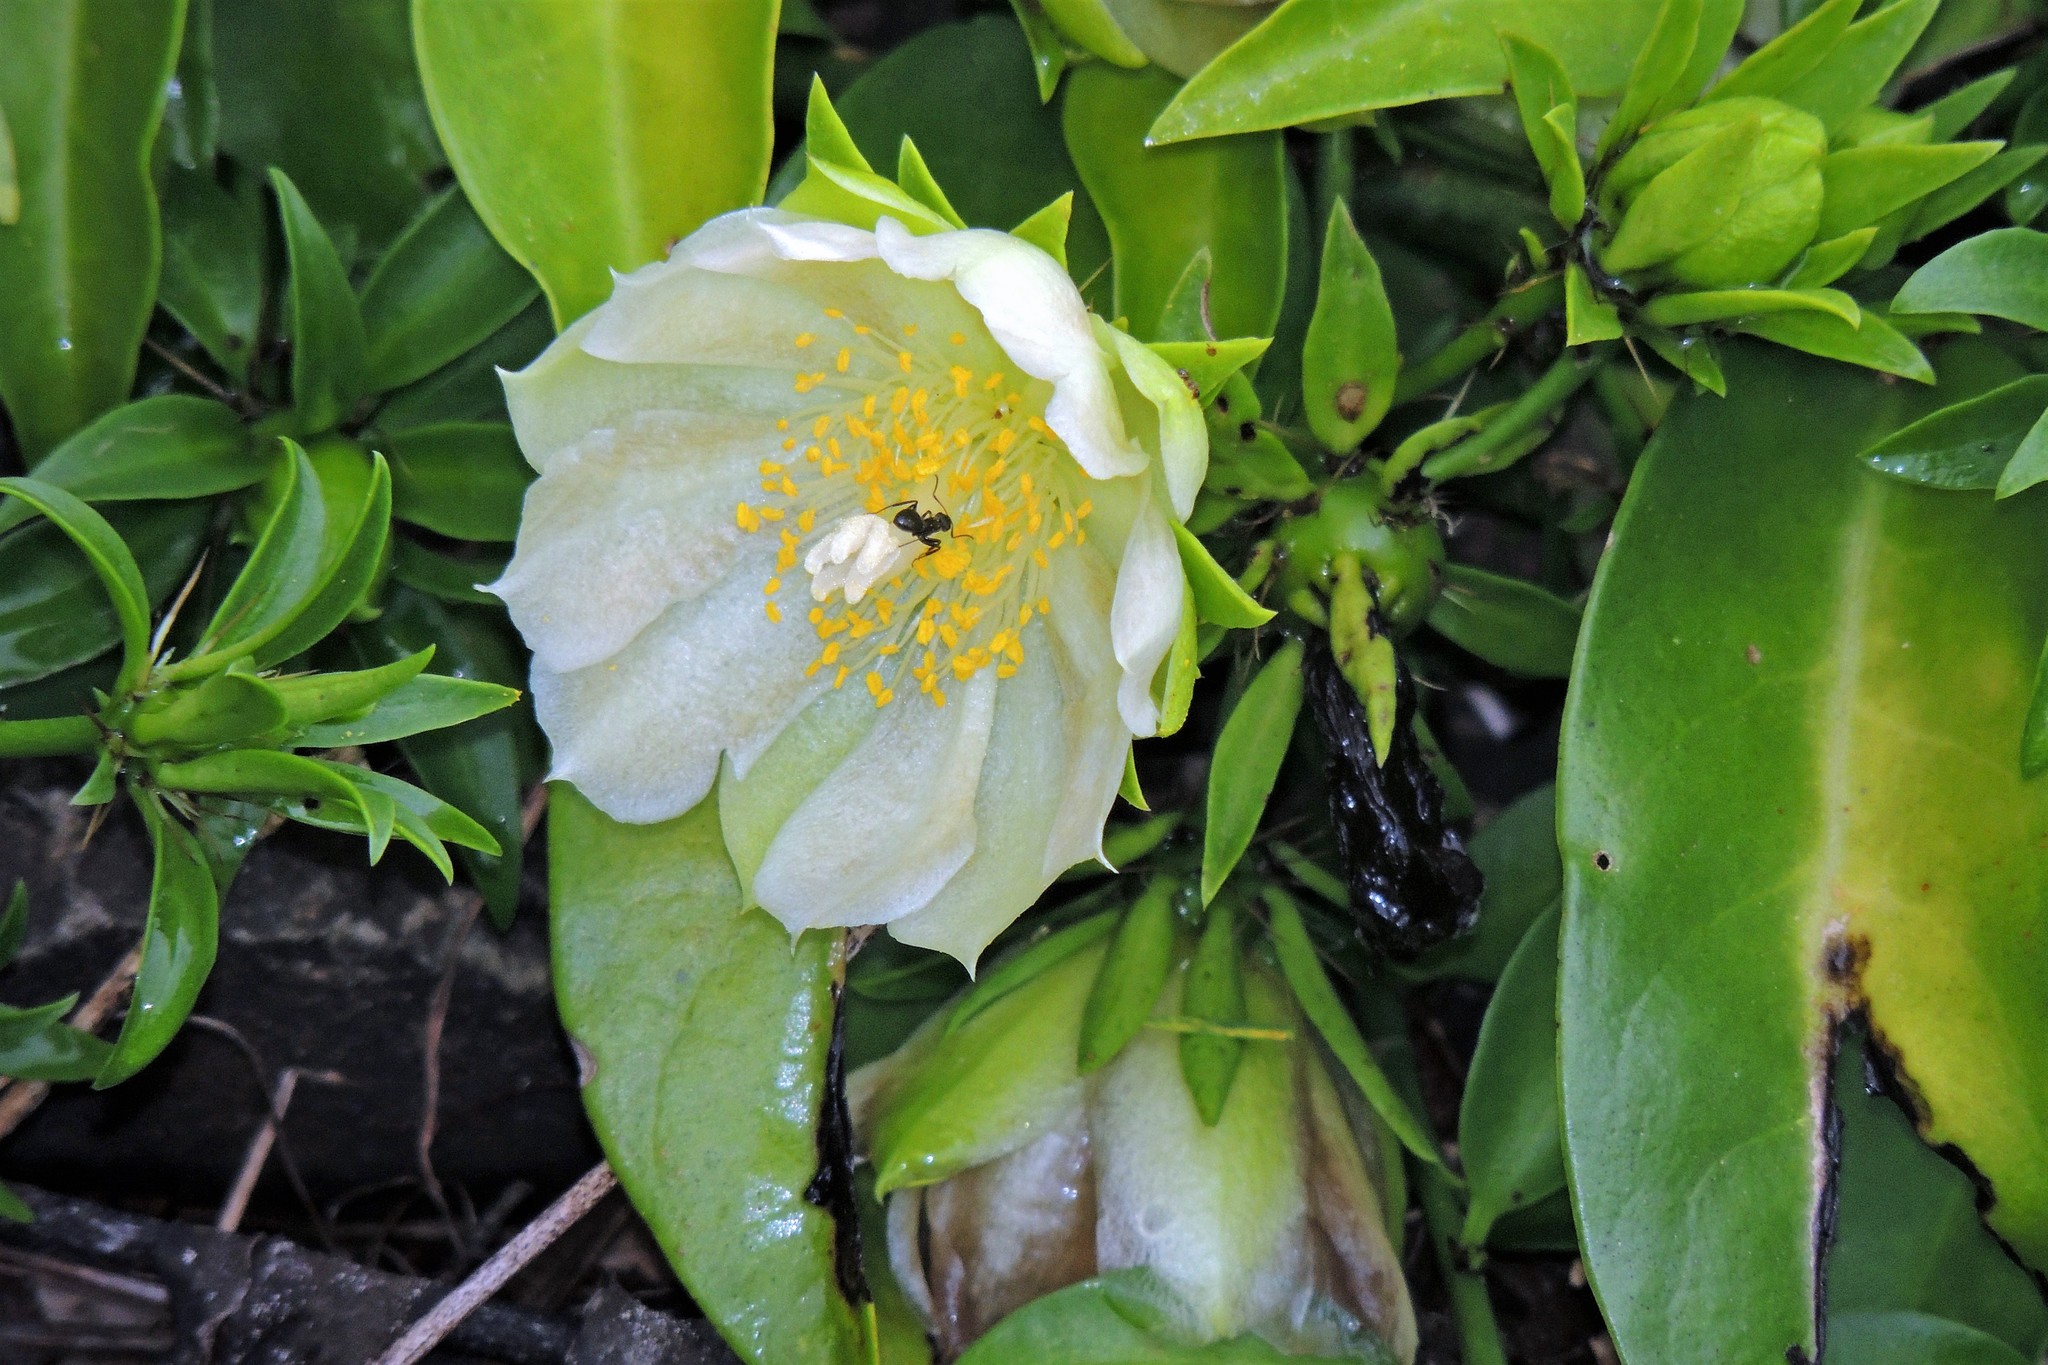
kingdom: Plantae
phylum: Tracheophyta
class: Magnoliopsida
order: Caryophyllales
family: Cactaceae
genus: Pereskia
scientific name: Pereskia aculeata
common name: Barbados gooseberry
